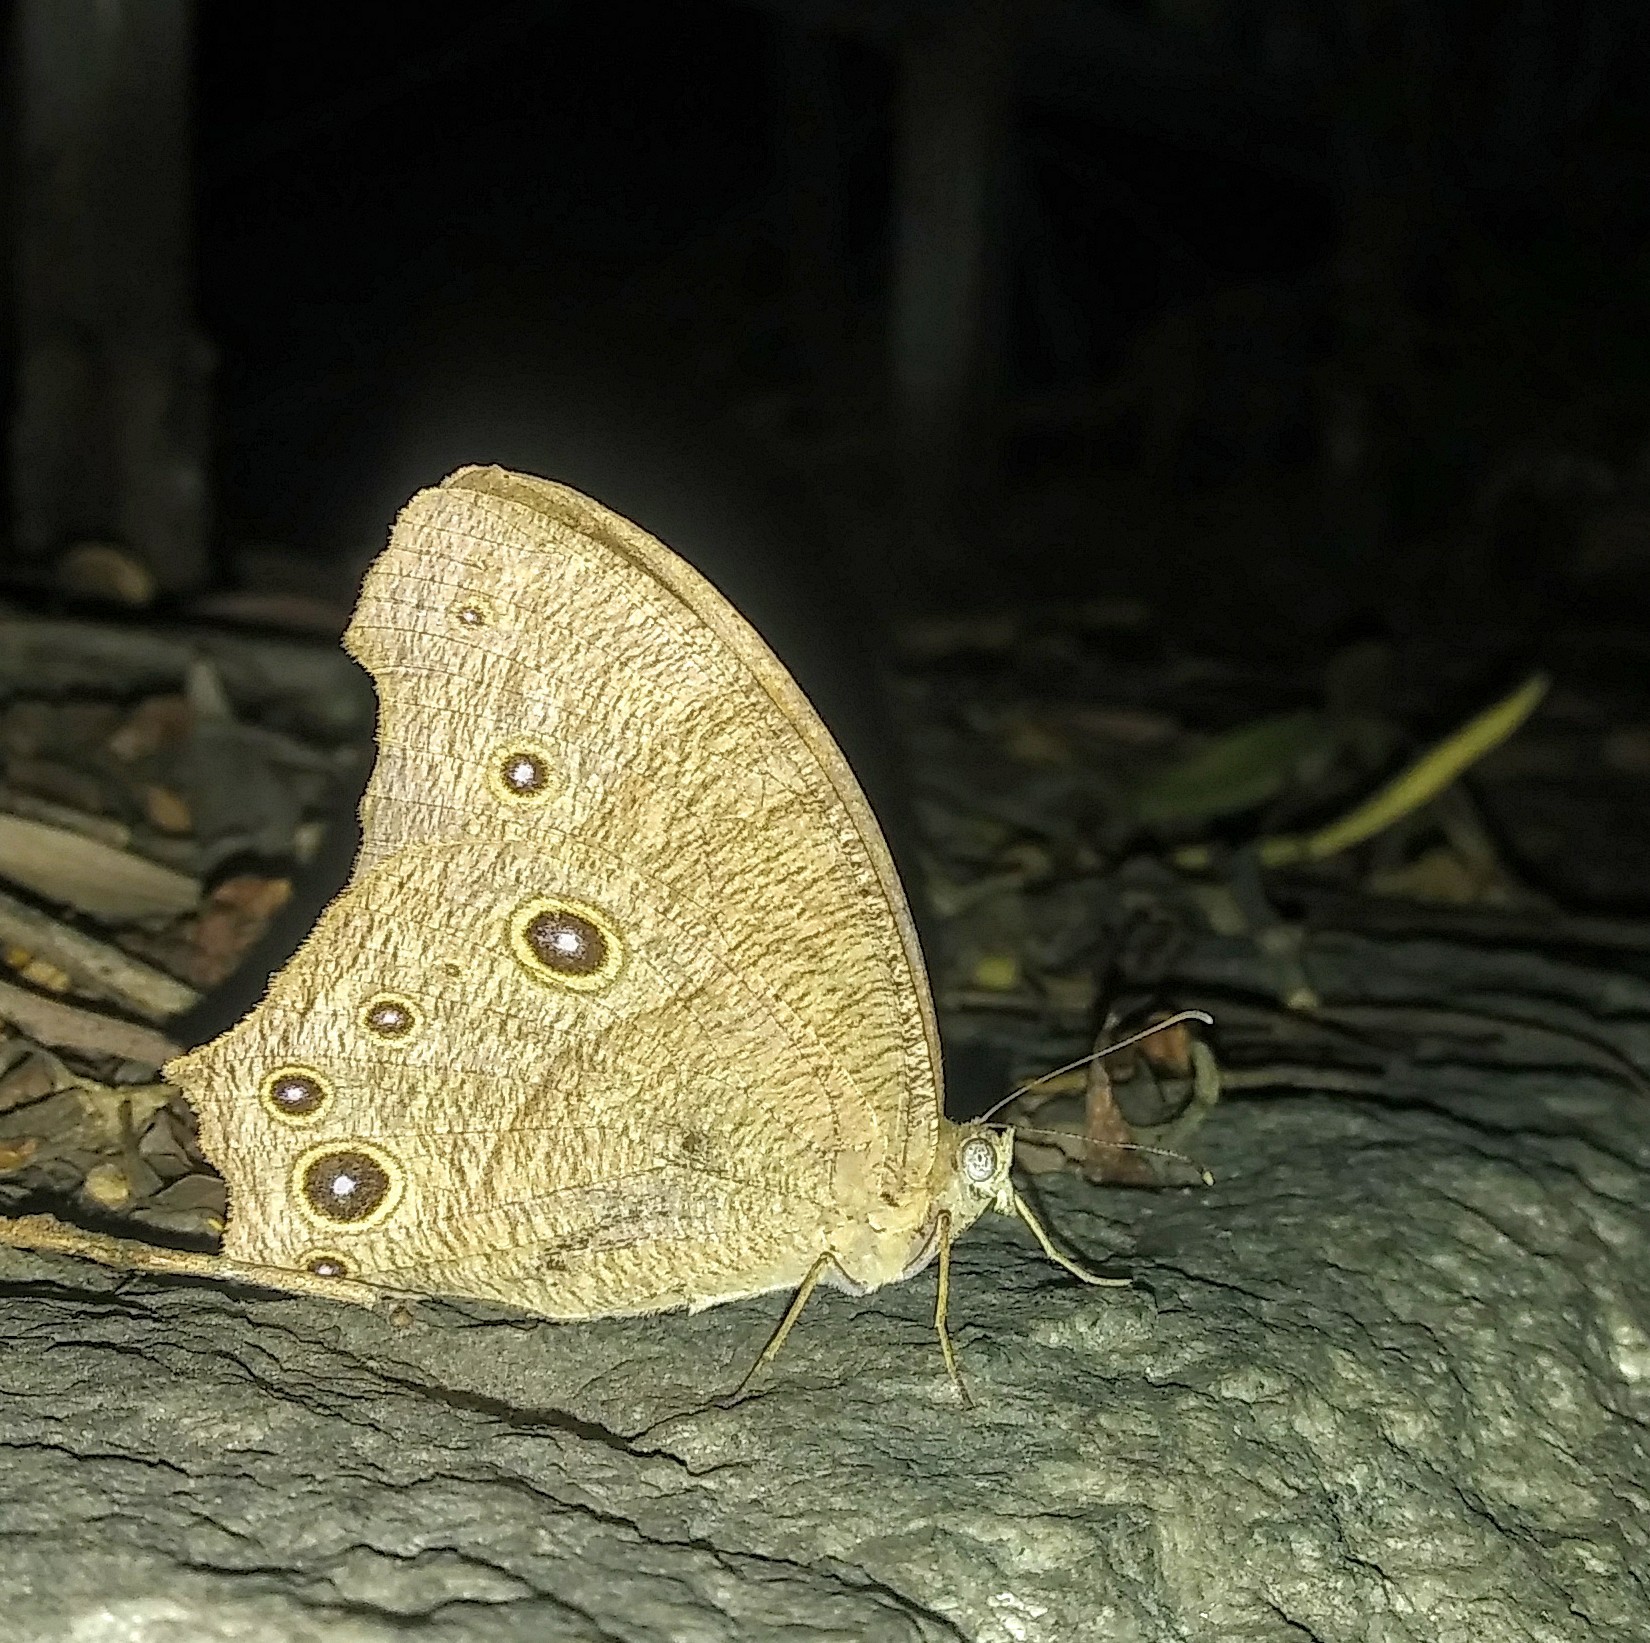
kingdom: Animalia
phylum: Arthropoda
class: Insecta
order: Lepidoptera
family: Nymphalidae
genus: Melanitis
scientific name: Melanitis leda
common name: Twilight brown
